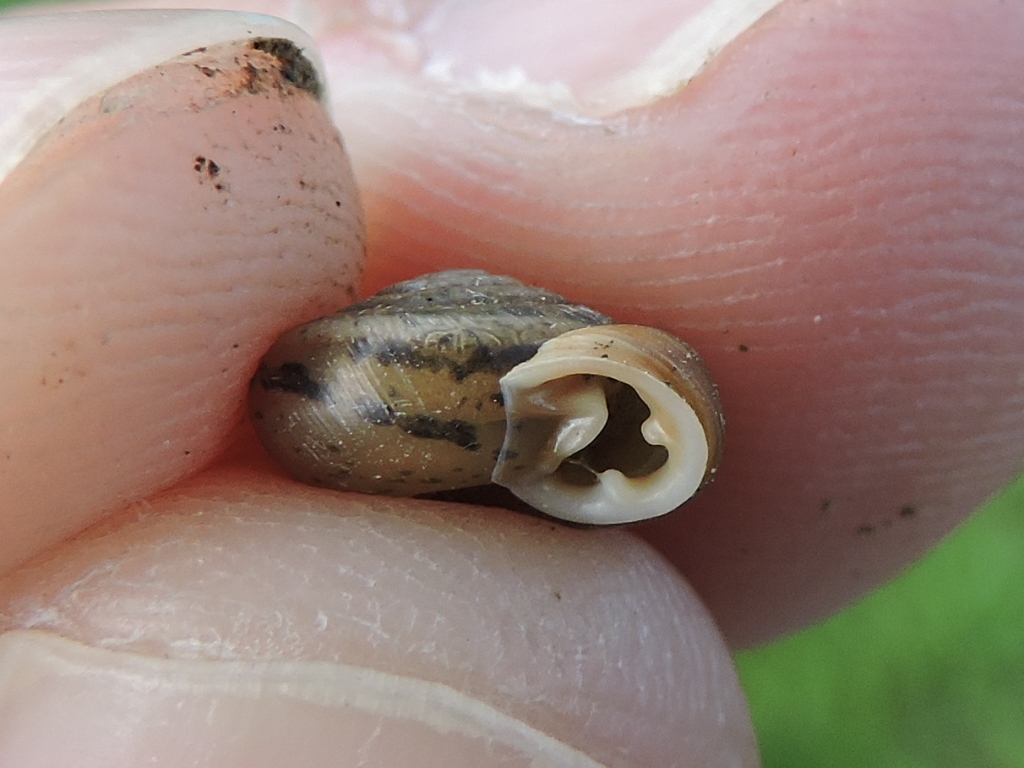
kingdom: Animalia
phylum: Mollusca
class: Gastropoda
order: Stylommatophora
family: Polygyridae
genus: Linisa
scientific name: Linisa texasiana
